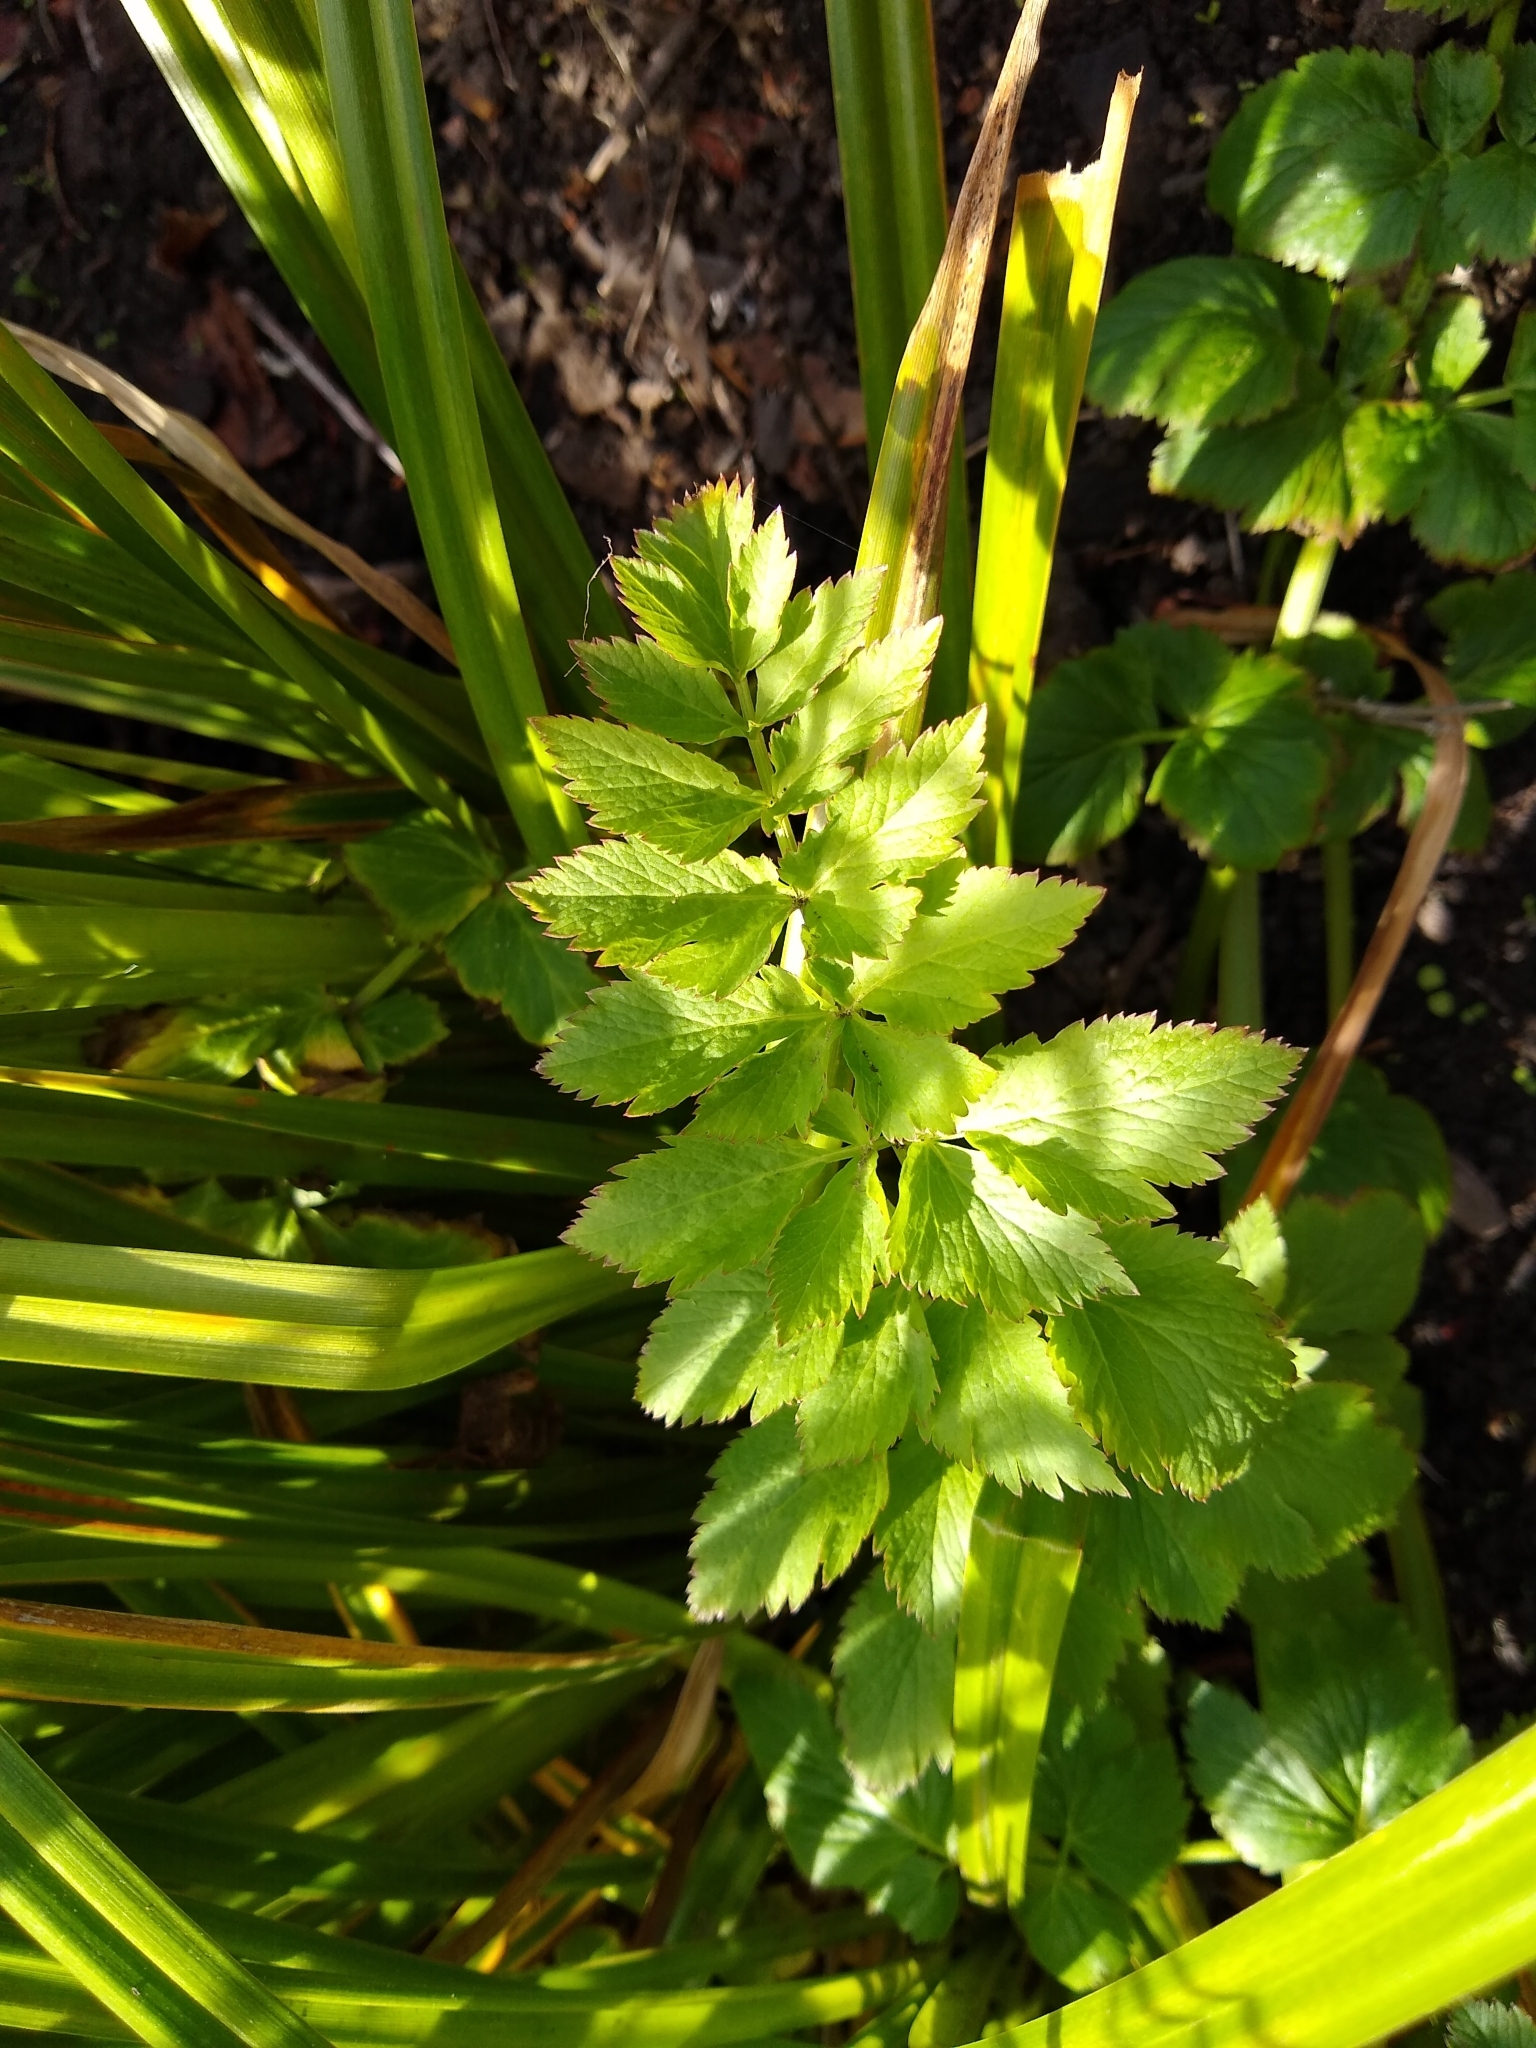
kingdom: Plantae
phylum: Tracheophyta
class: Magnoliopsida
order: Apiales
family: Apiaceae
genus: Oenanthe
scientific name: Oenanthe sarmentosa
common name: American water-parsley
